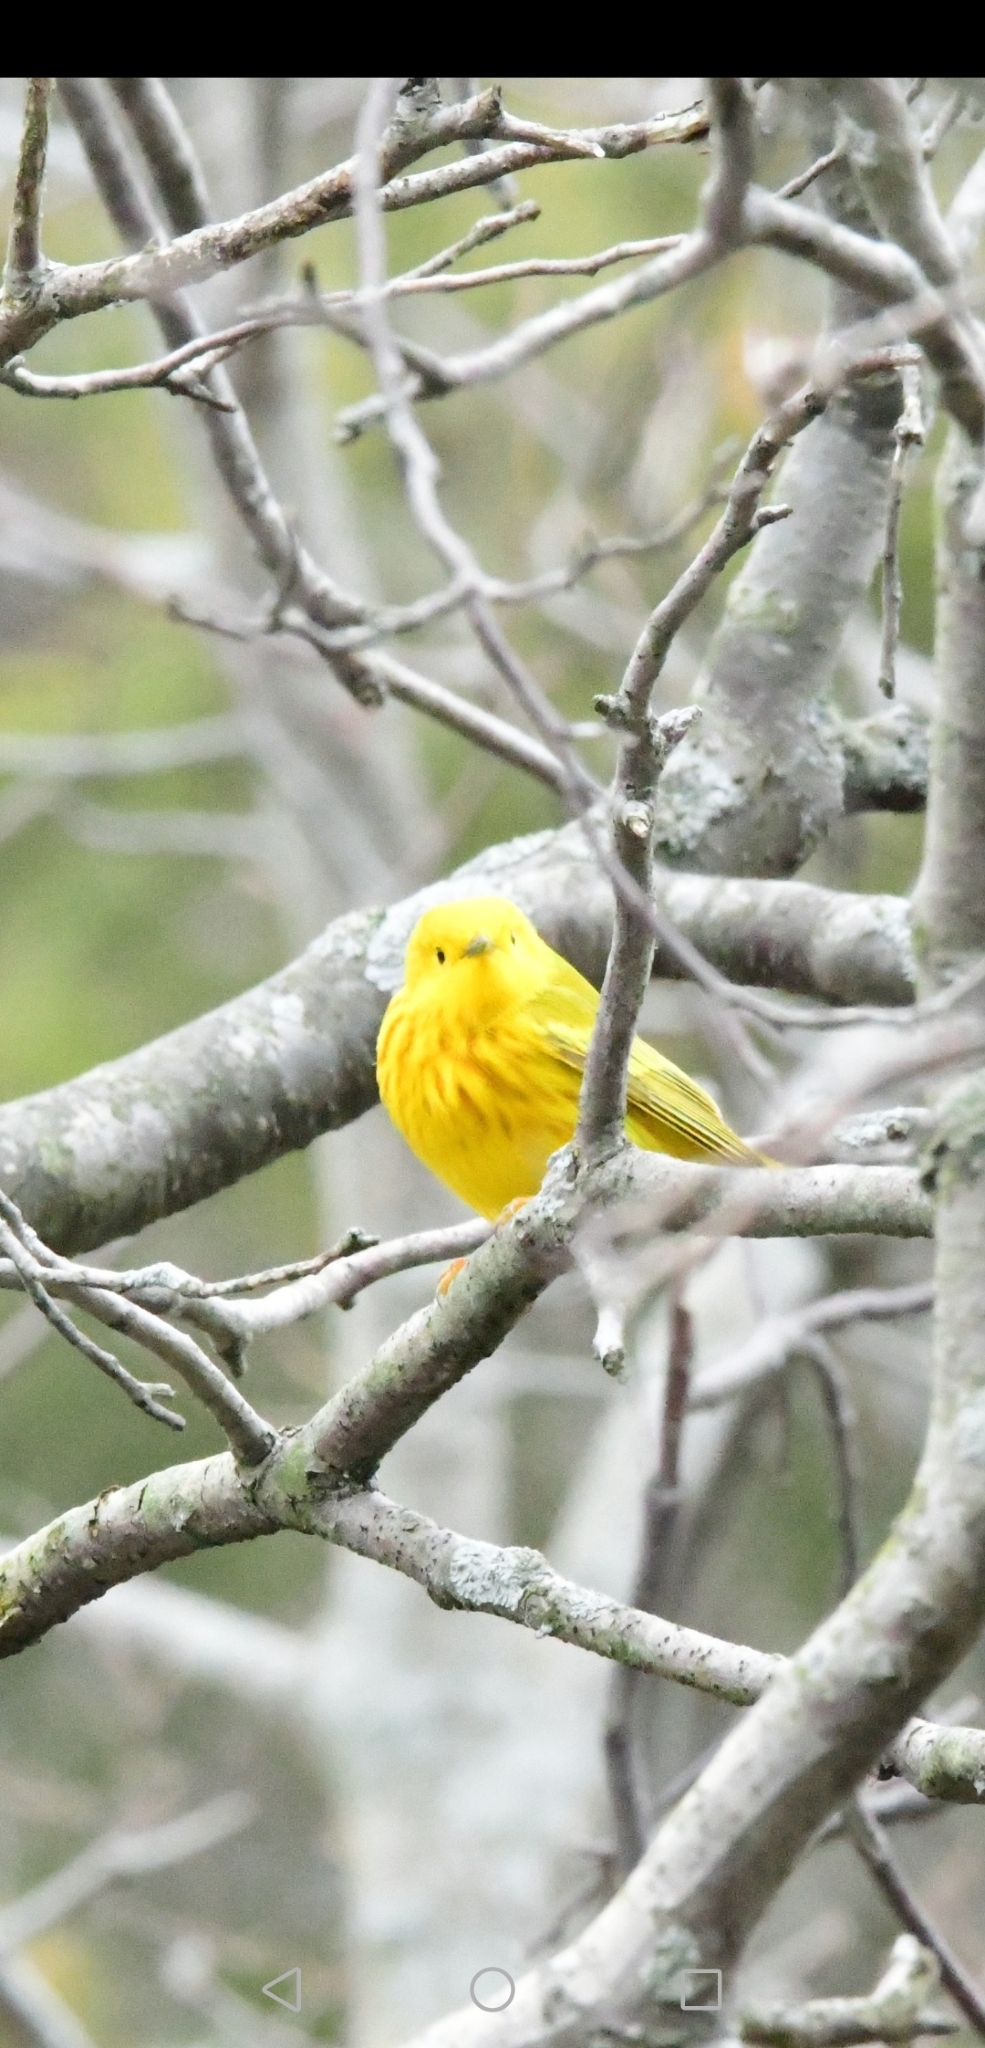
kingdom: Animalia
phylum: Chordata
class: Aves
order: Passeriformes
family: Parulidae
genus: Setophaga
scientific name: Setophaga petechia
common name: Yellow warbler
